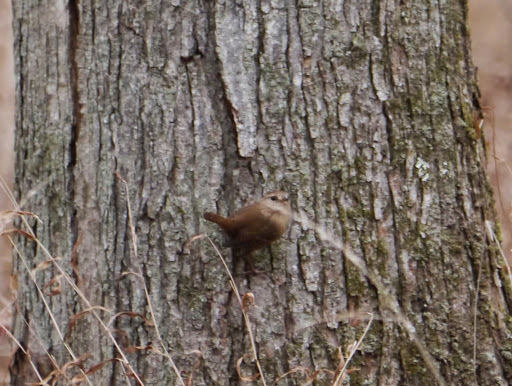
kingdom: Animalia
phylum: Chordata
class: Aves
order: Passeriformes
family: Troglodytidae
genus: Troglodytes
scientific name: Troglodytes hiemalis
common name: Winter wren
